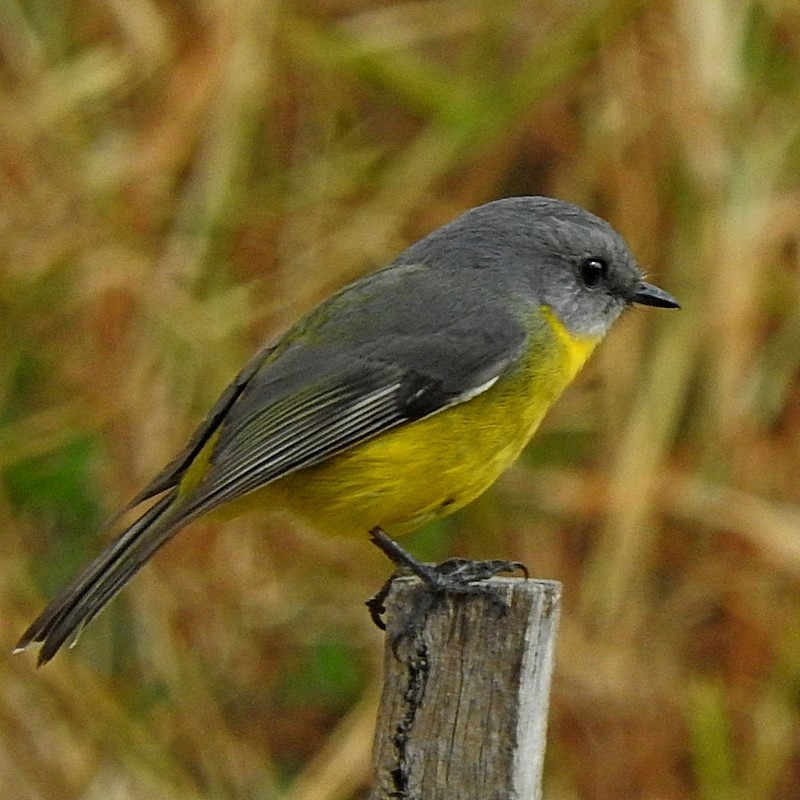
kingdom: Animalia
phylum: Chordata
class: Aves
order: Passeriformes
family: Petroicidae
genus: Eopsaltria
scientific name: Eopsaltria australis
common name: Eastern yellow robin
